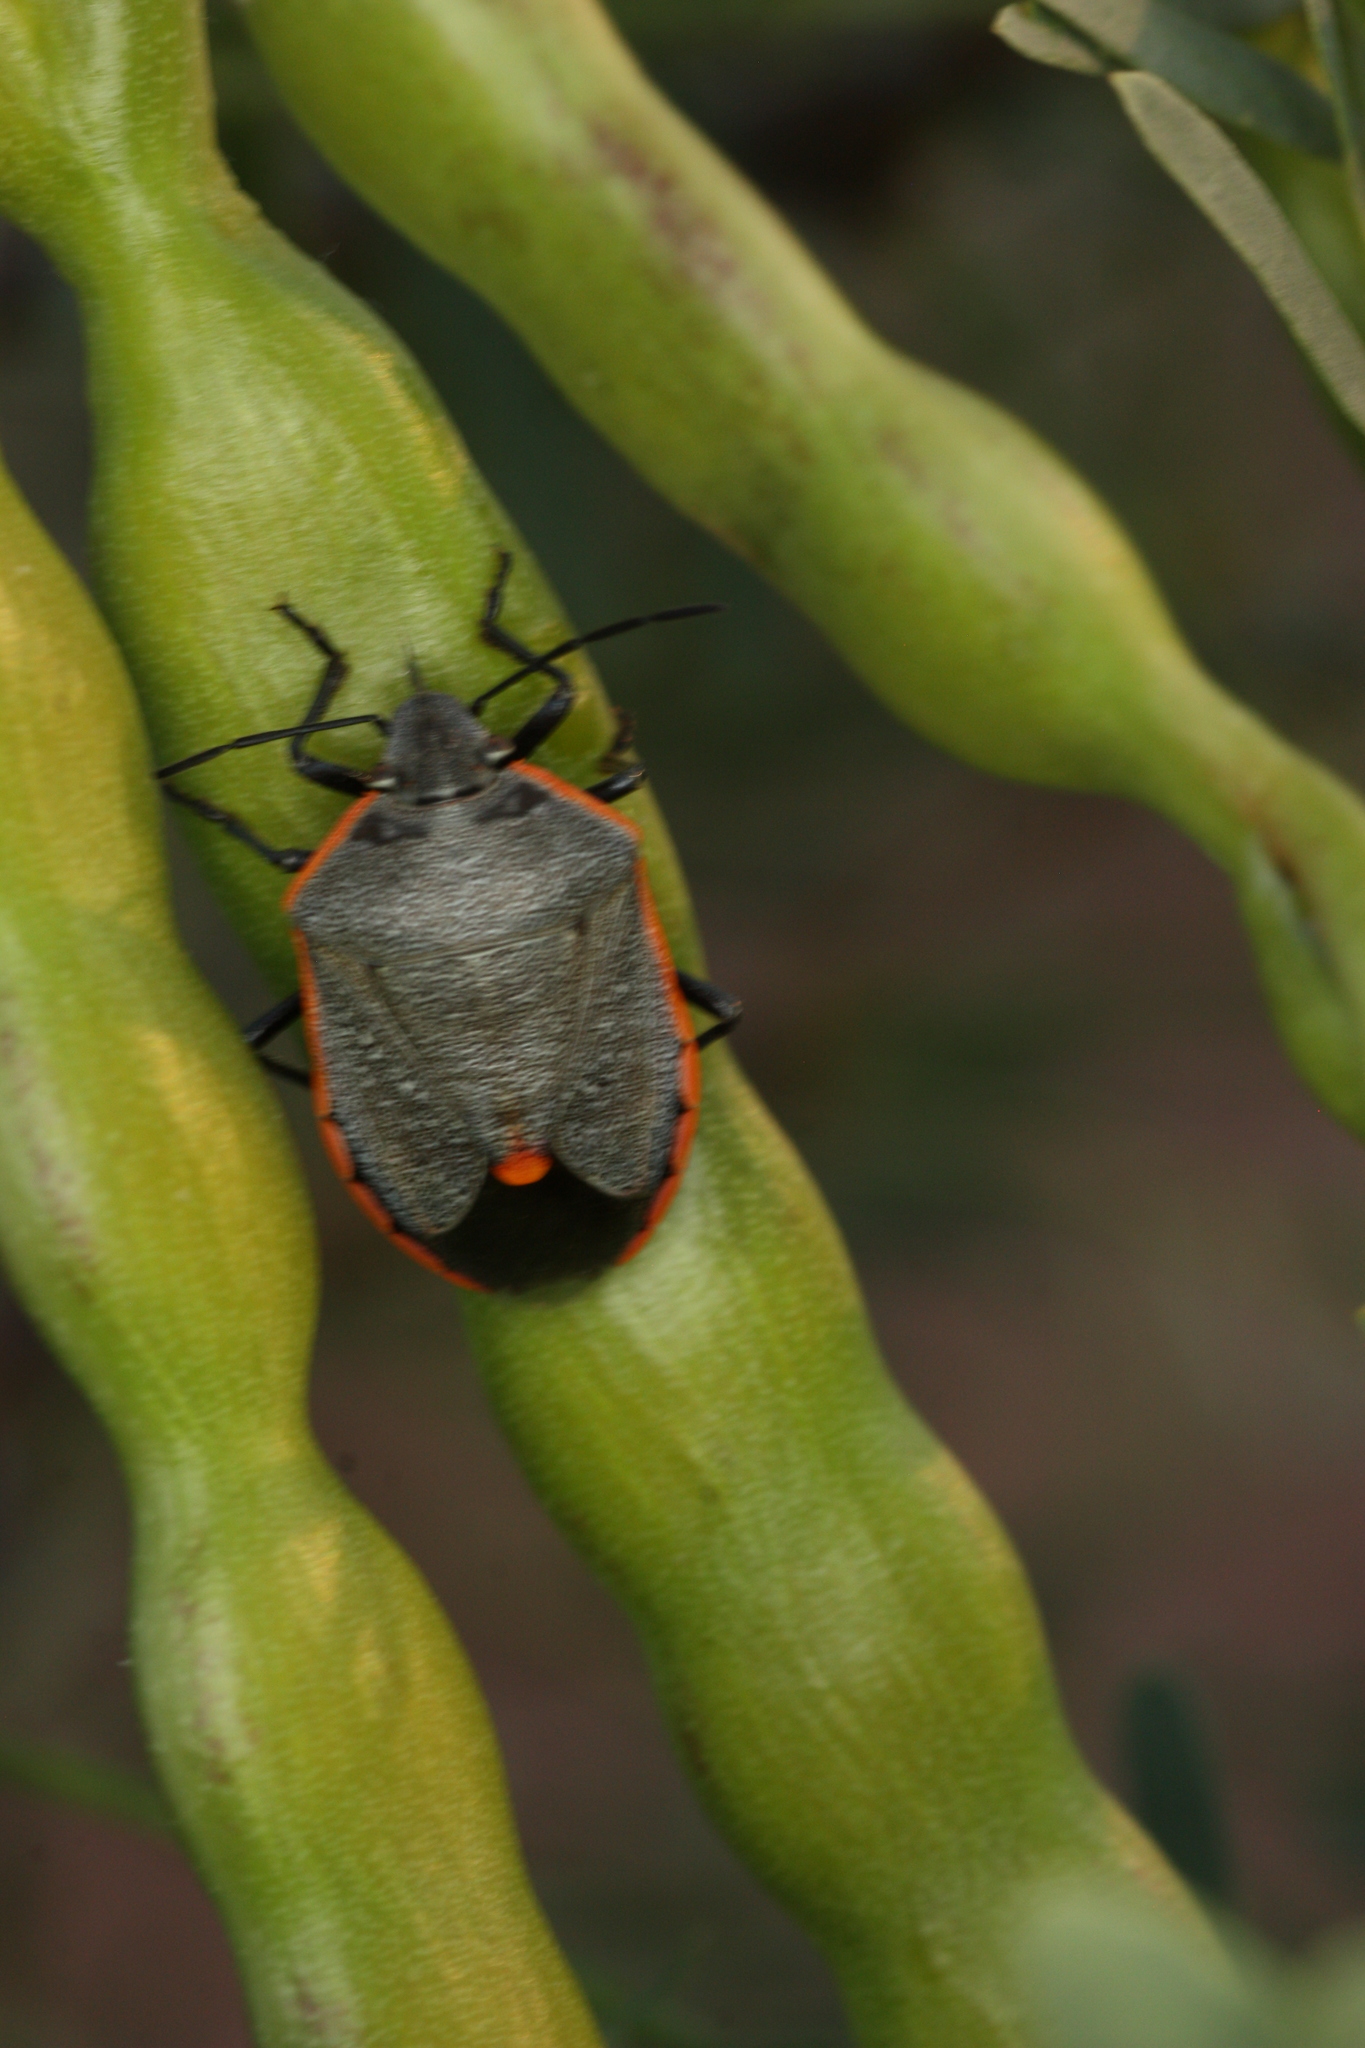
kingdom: Animalia
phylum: Arthropoda
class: Insecta
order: Hemiptera
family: Pentatomidae
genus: Chlorochroa
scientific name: Chlorochroa ligata
